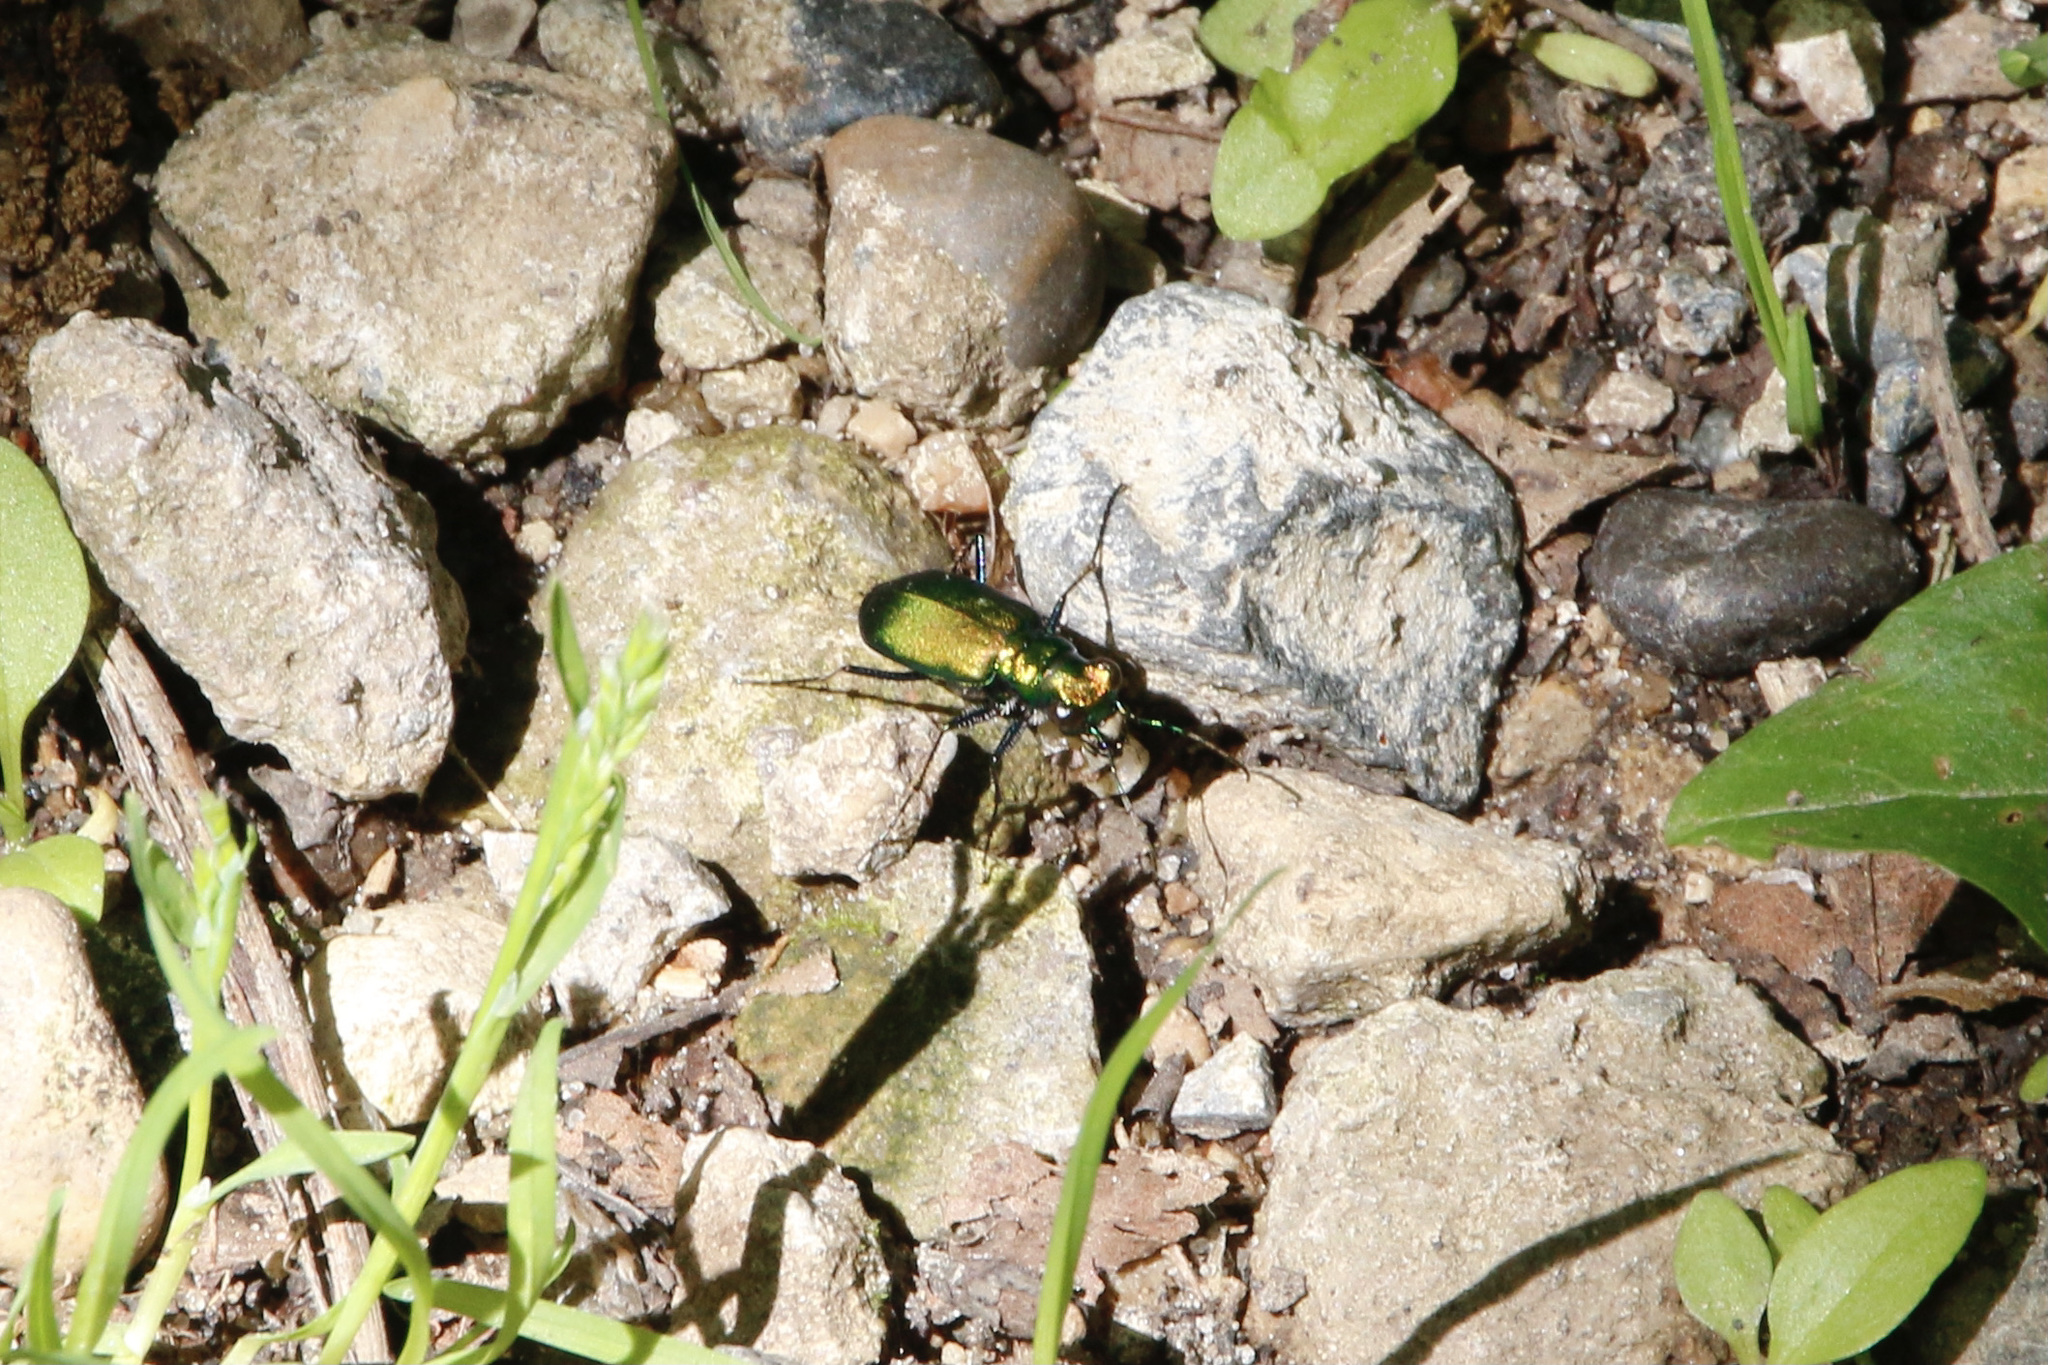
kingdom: Animalia
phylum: Arthropoda
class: Insecta
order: Coleoptera
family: Carabidae
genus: Cicindela
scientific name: Cicindela sexguttata
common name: Six-spotted tiger beetle
